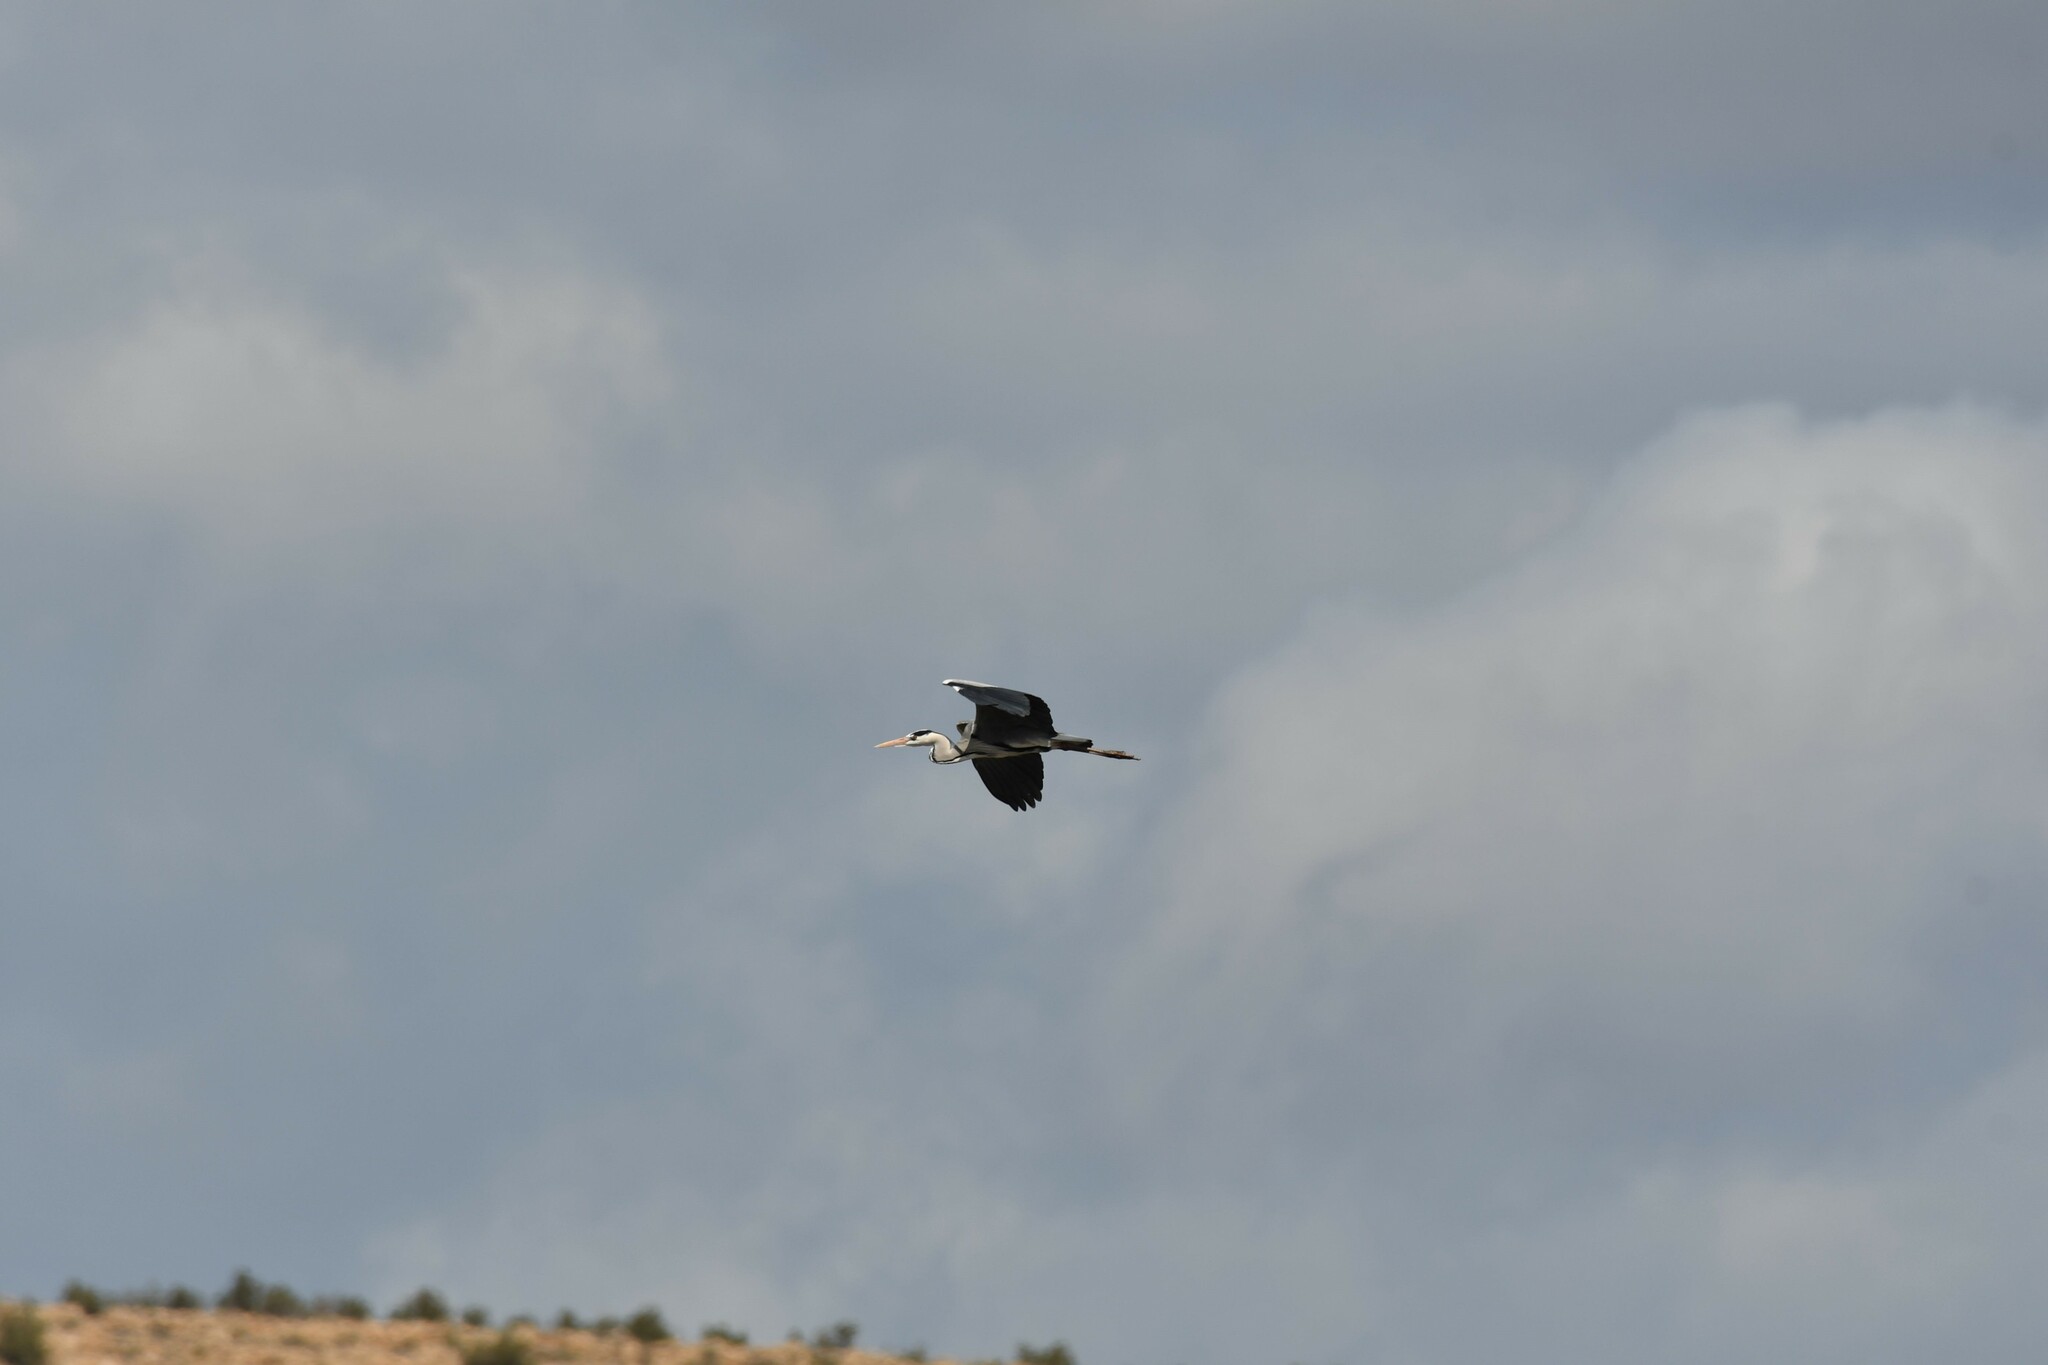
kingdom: Animalia
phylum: Chordata
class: Aves
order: Pelecaniformes
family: Ardeidae
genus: Ardea
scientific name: Ardea cinerea
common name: Grey heron
